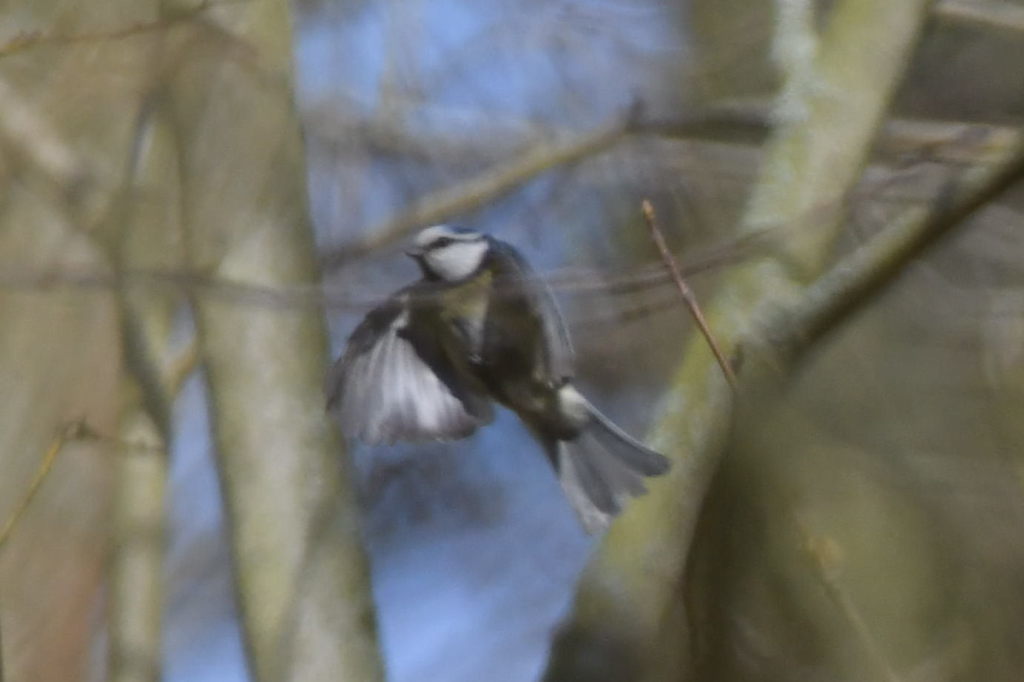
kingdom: Animalia
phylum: Chordata
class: Aves
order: Passeriformes
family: Paridae
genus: Cyanistes
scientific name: Cyanistes caeruleus
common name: Eurasian blue tit
